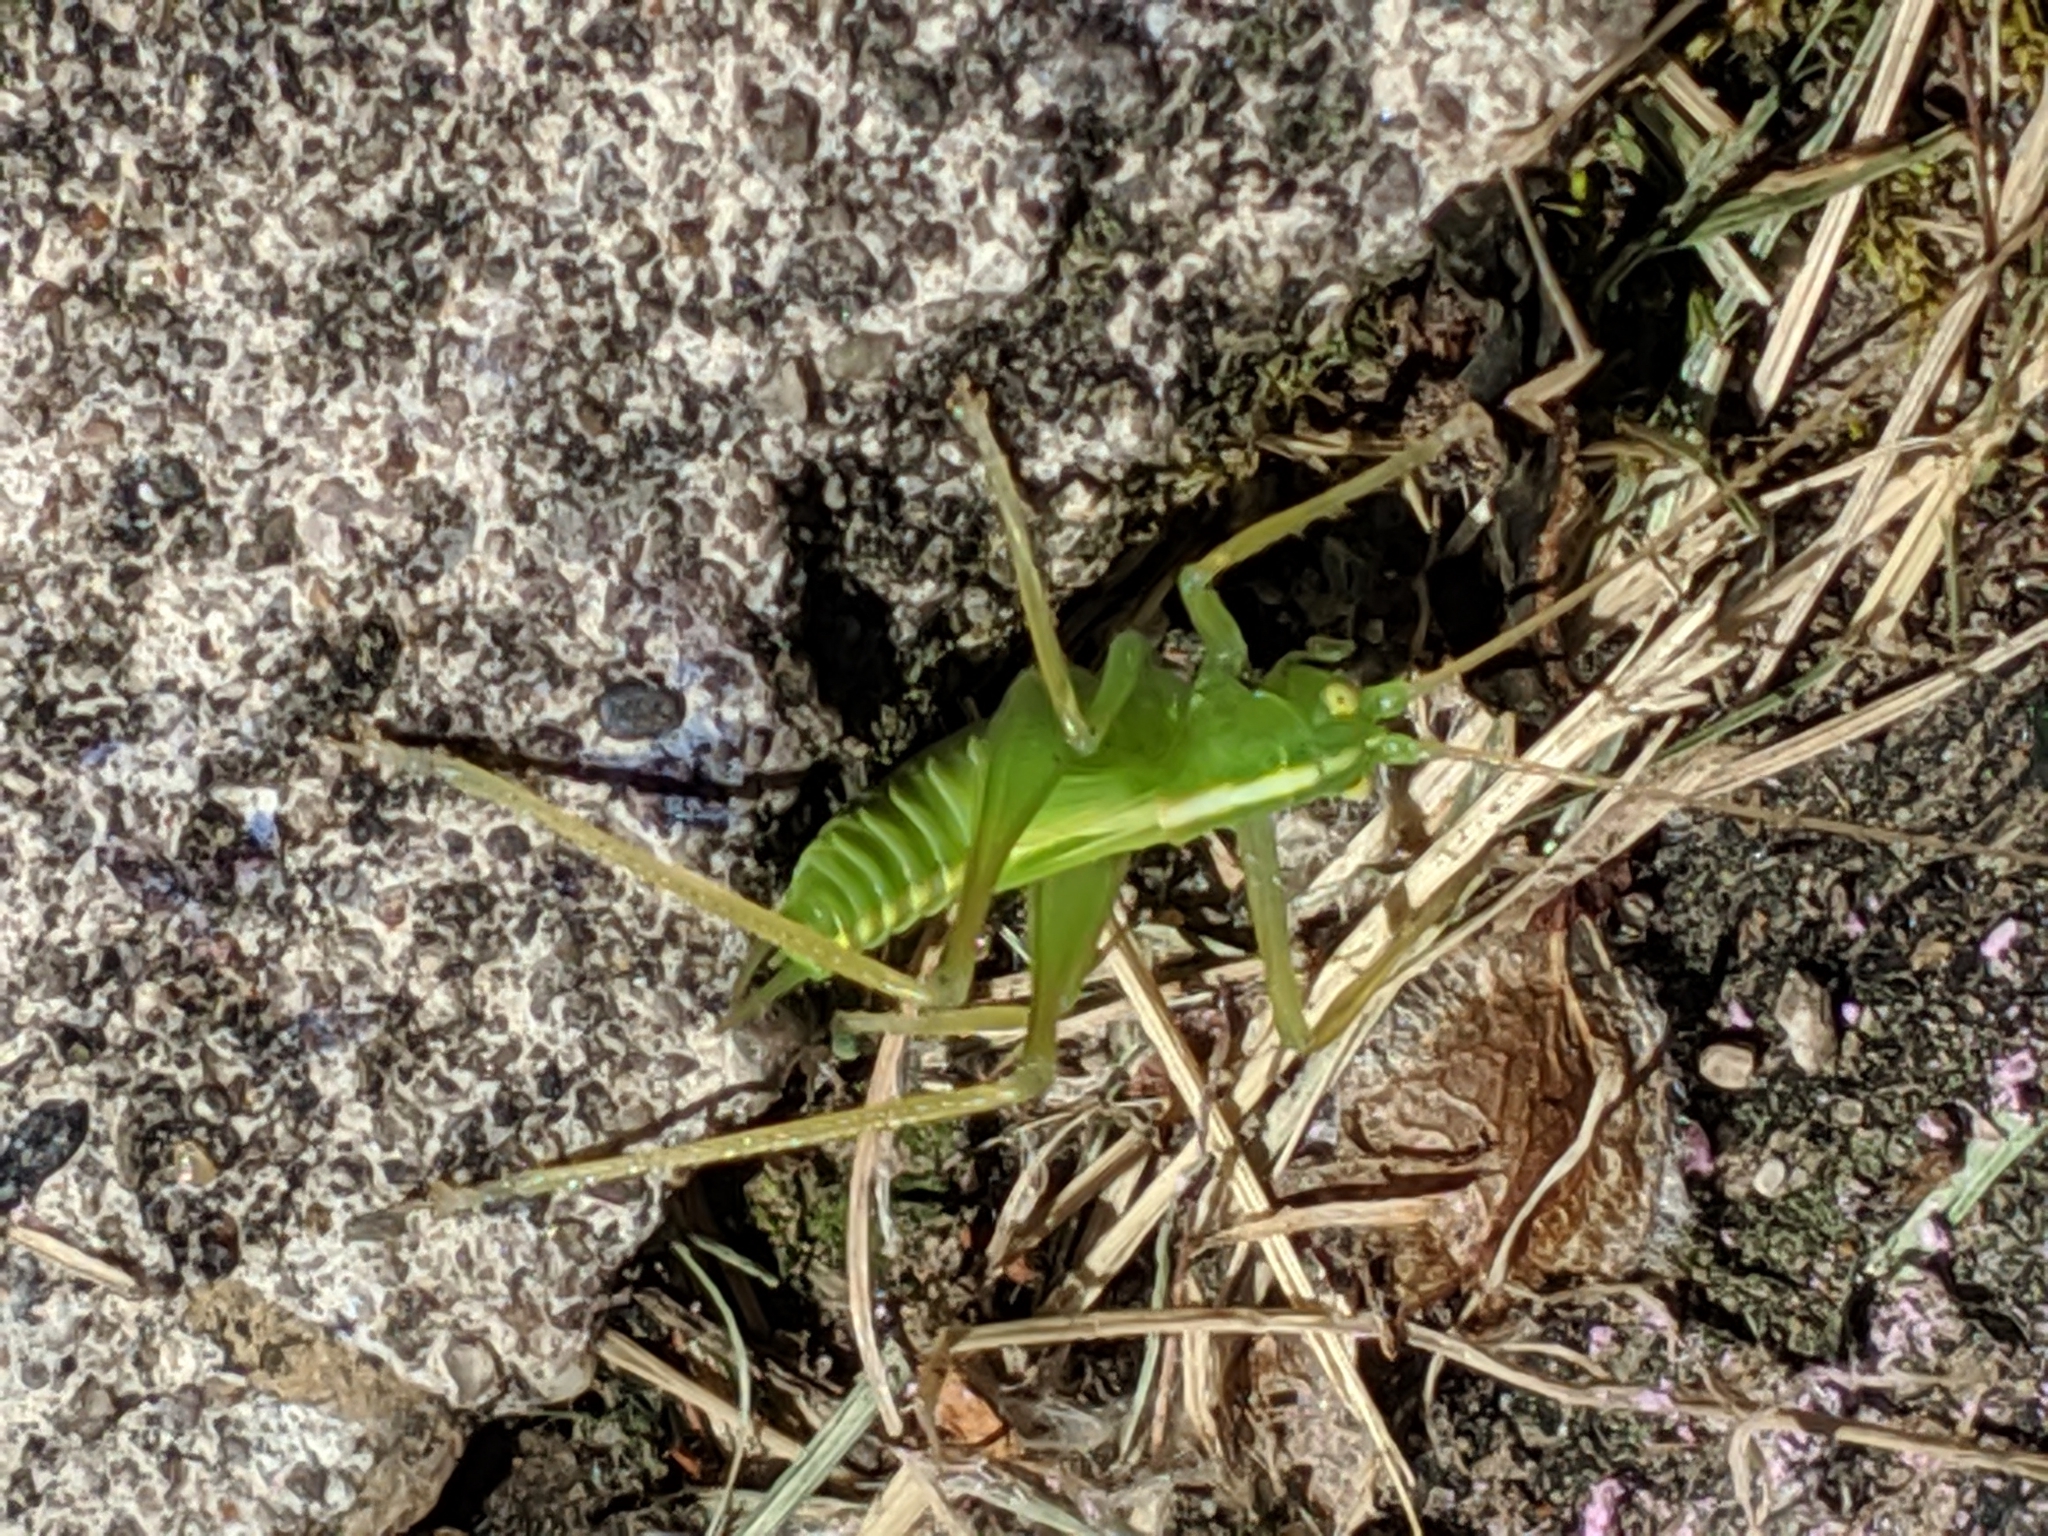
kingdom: Animalia
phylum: Arthropoda
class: Insecta
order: Orthoptera
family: Tettigoniidae
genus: Meconema
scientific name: Meconema thalassinum
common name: Oak bush-cricket
